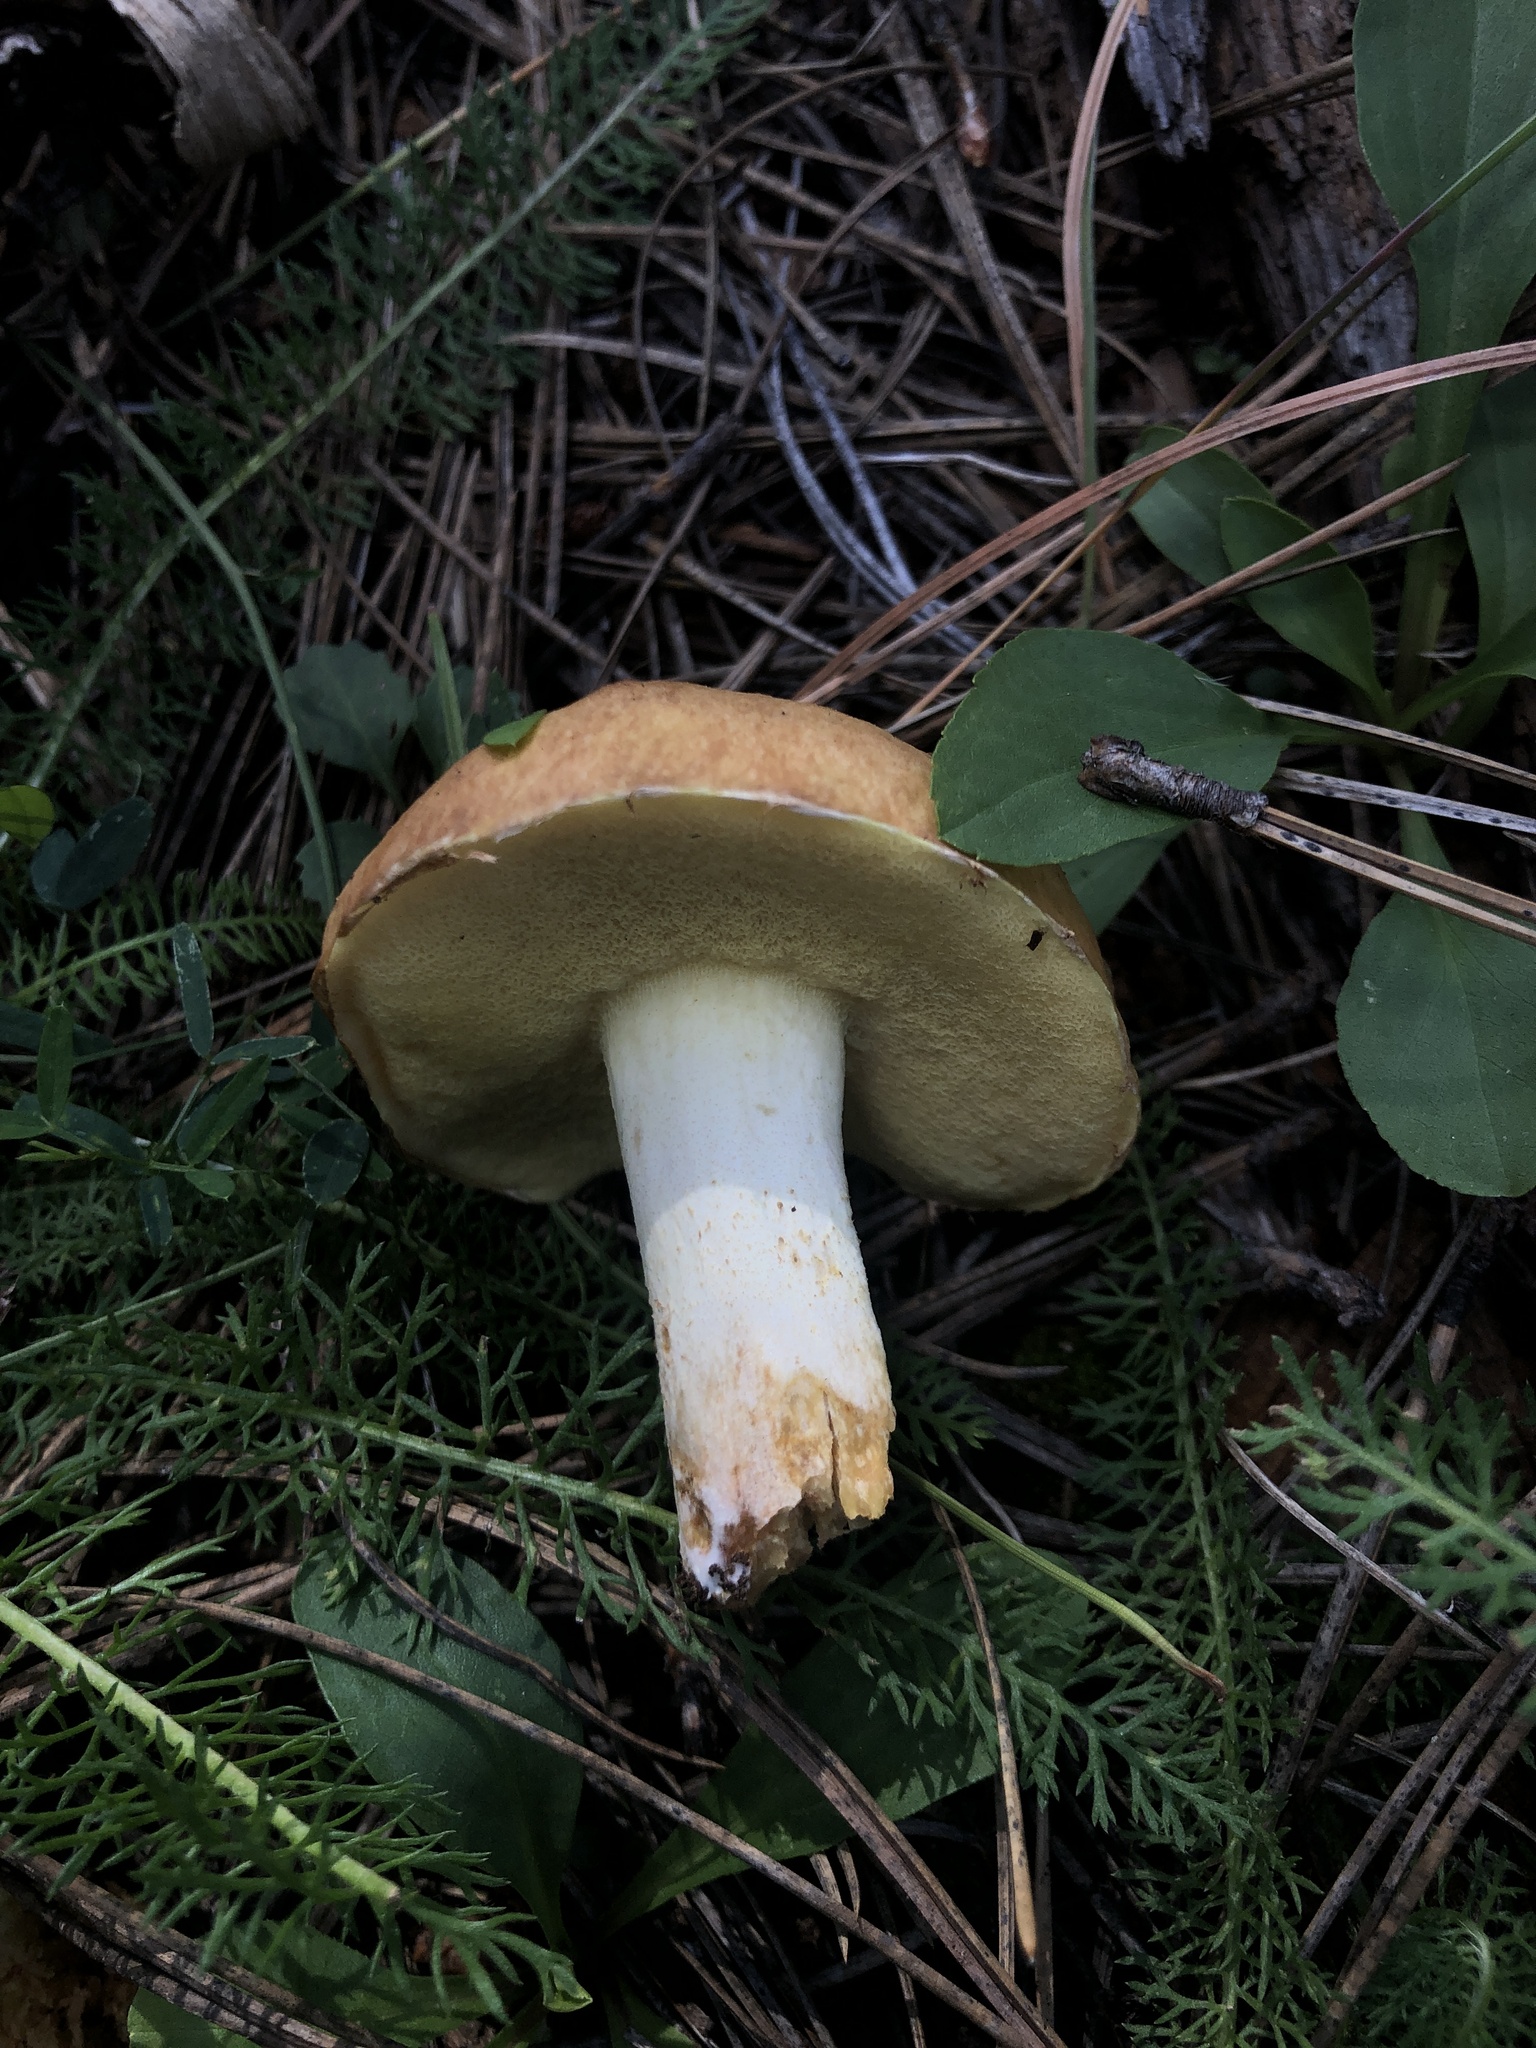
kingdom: Fungi
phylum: Basidiomycota
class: Agaricomycetes
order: Boletales
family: Suillaceae
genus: Suillus
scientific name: Suillus occidentalis
